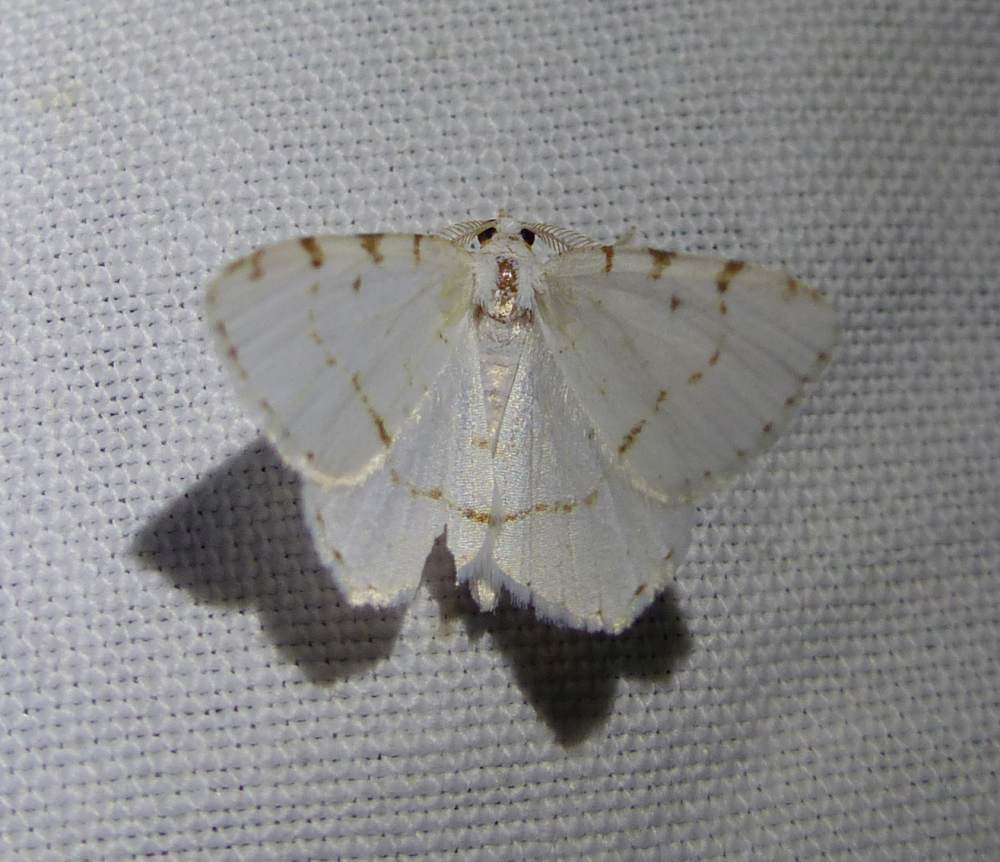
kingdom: Animalia
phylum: Arthropoda
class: Insecta
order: Lepidoptera
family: Geometridae
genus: Macaria
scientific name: Macaria pustularia
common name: Lesser maple spanworm moth
